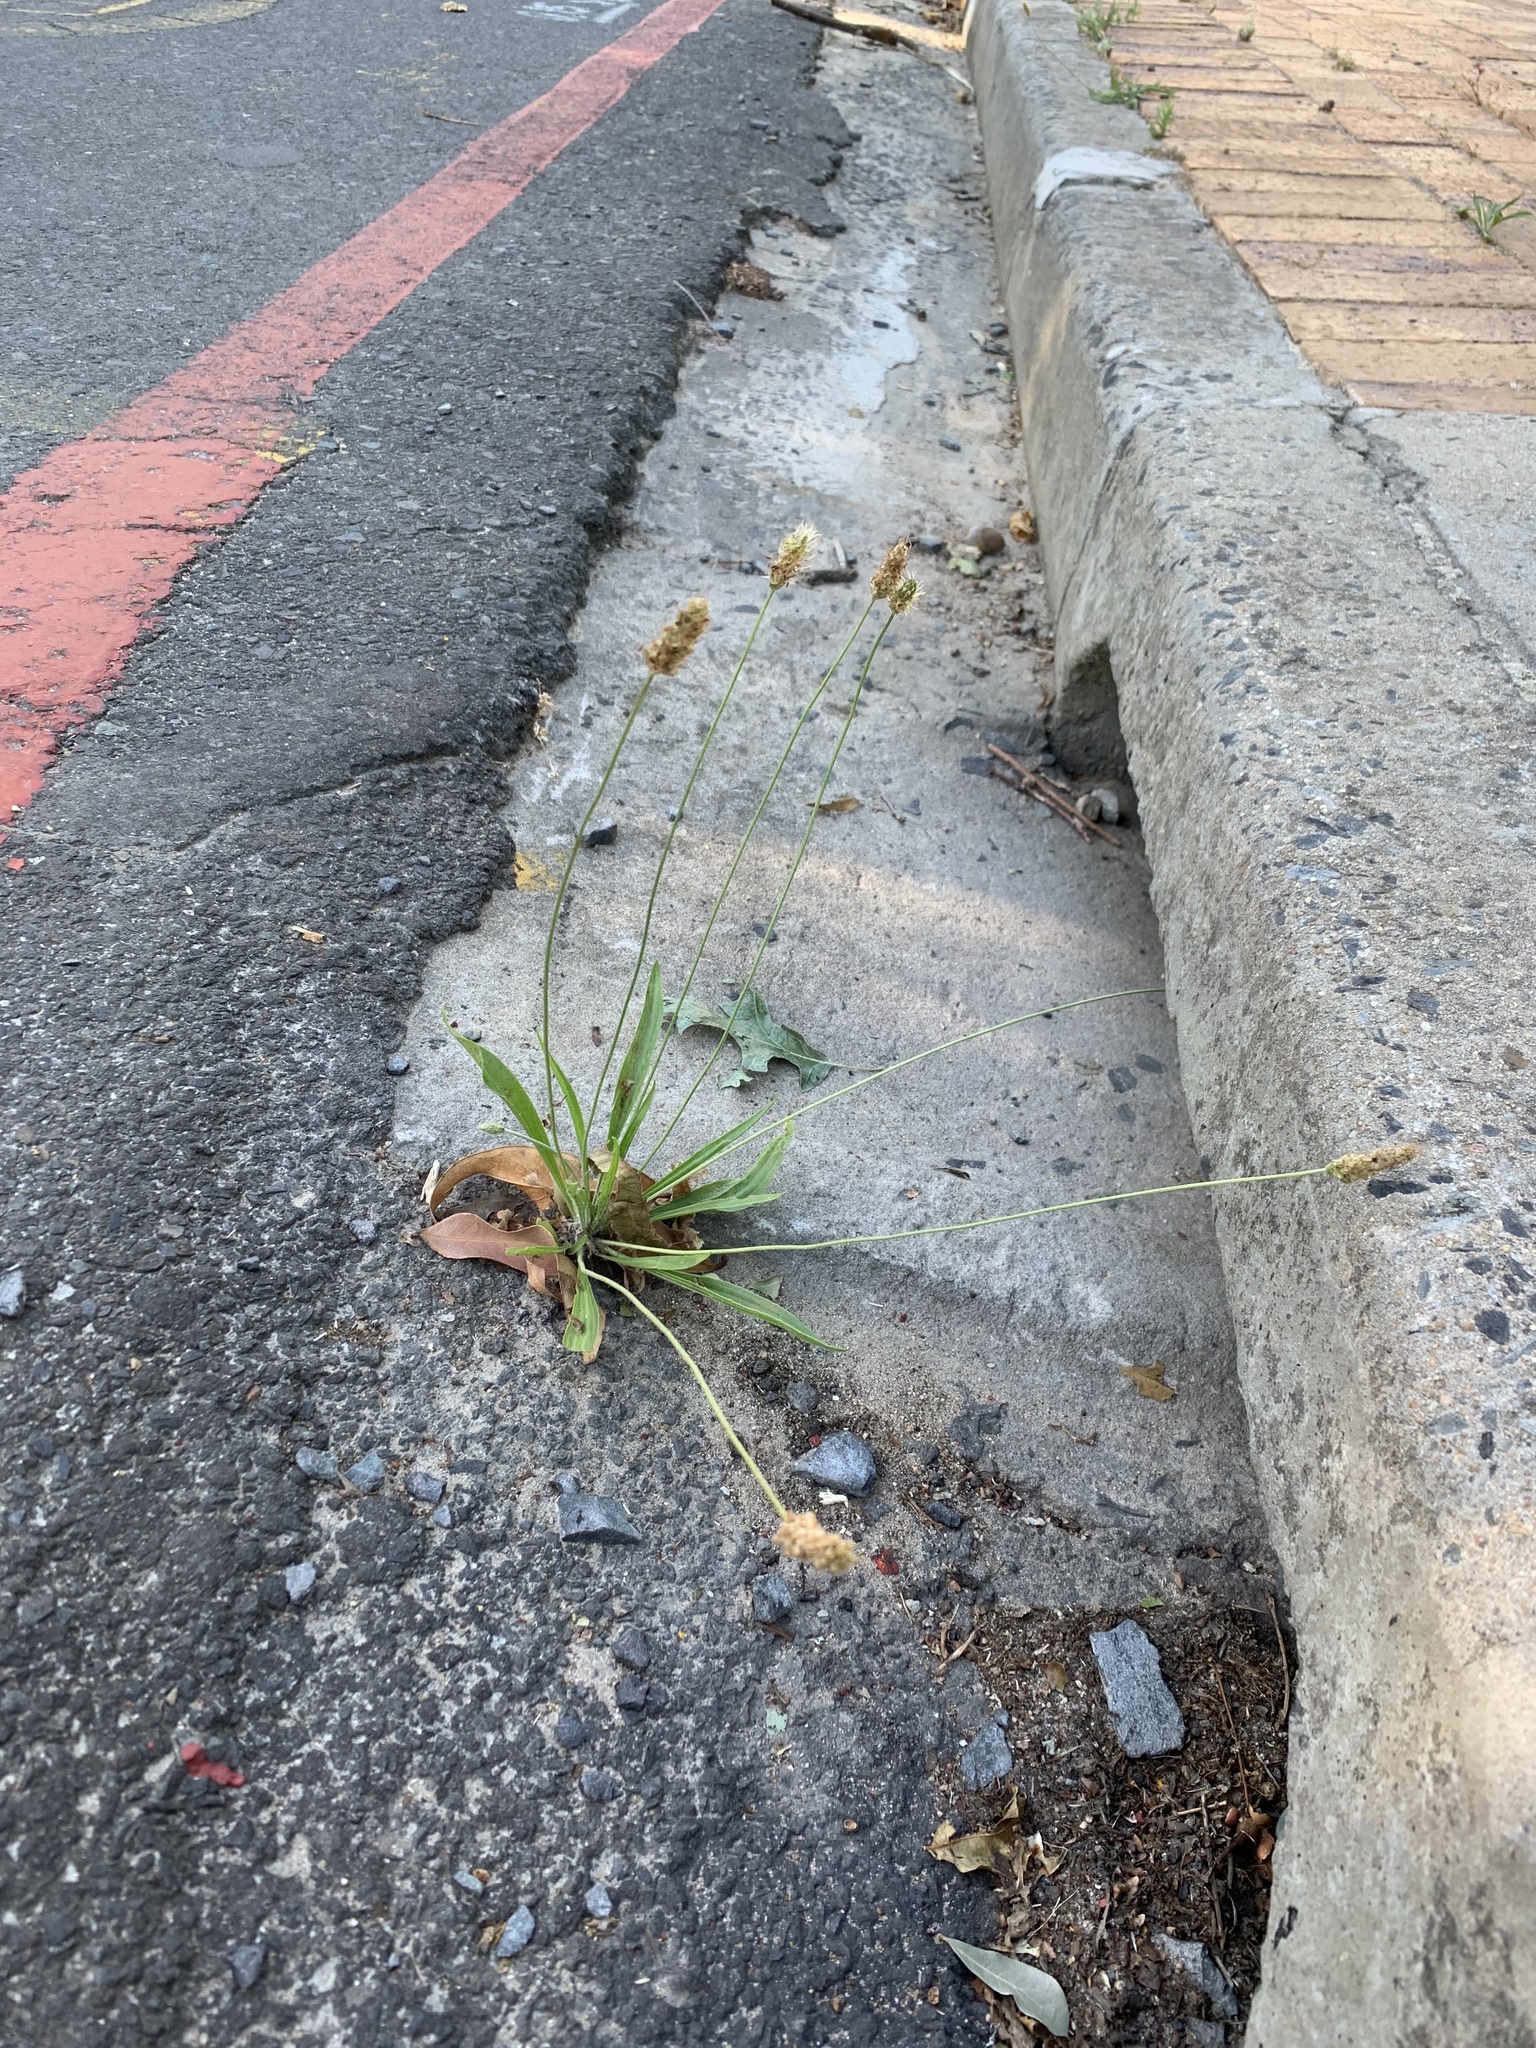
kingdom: Plantae
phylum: Tracheophyta
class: Magnoliopsida
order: Lamiales
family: Plantaginaceae
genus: Plantago
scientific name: Plantago lanceolata
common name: Ribwort plantain
